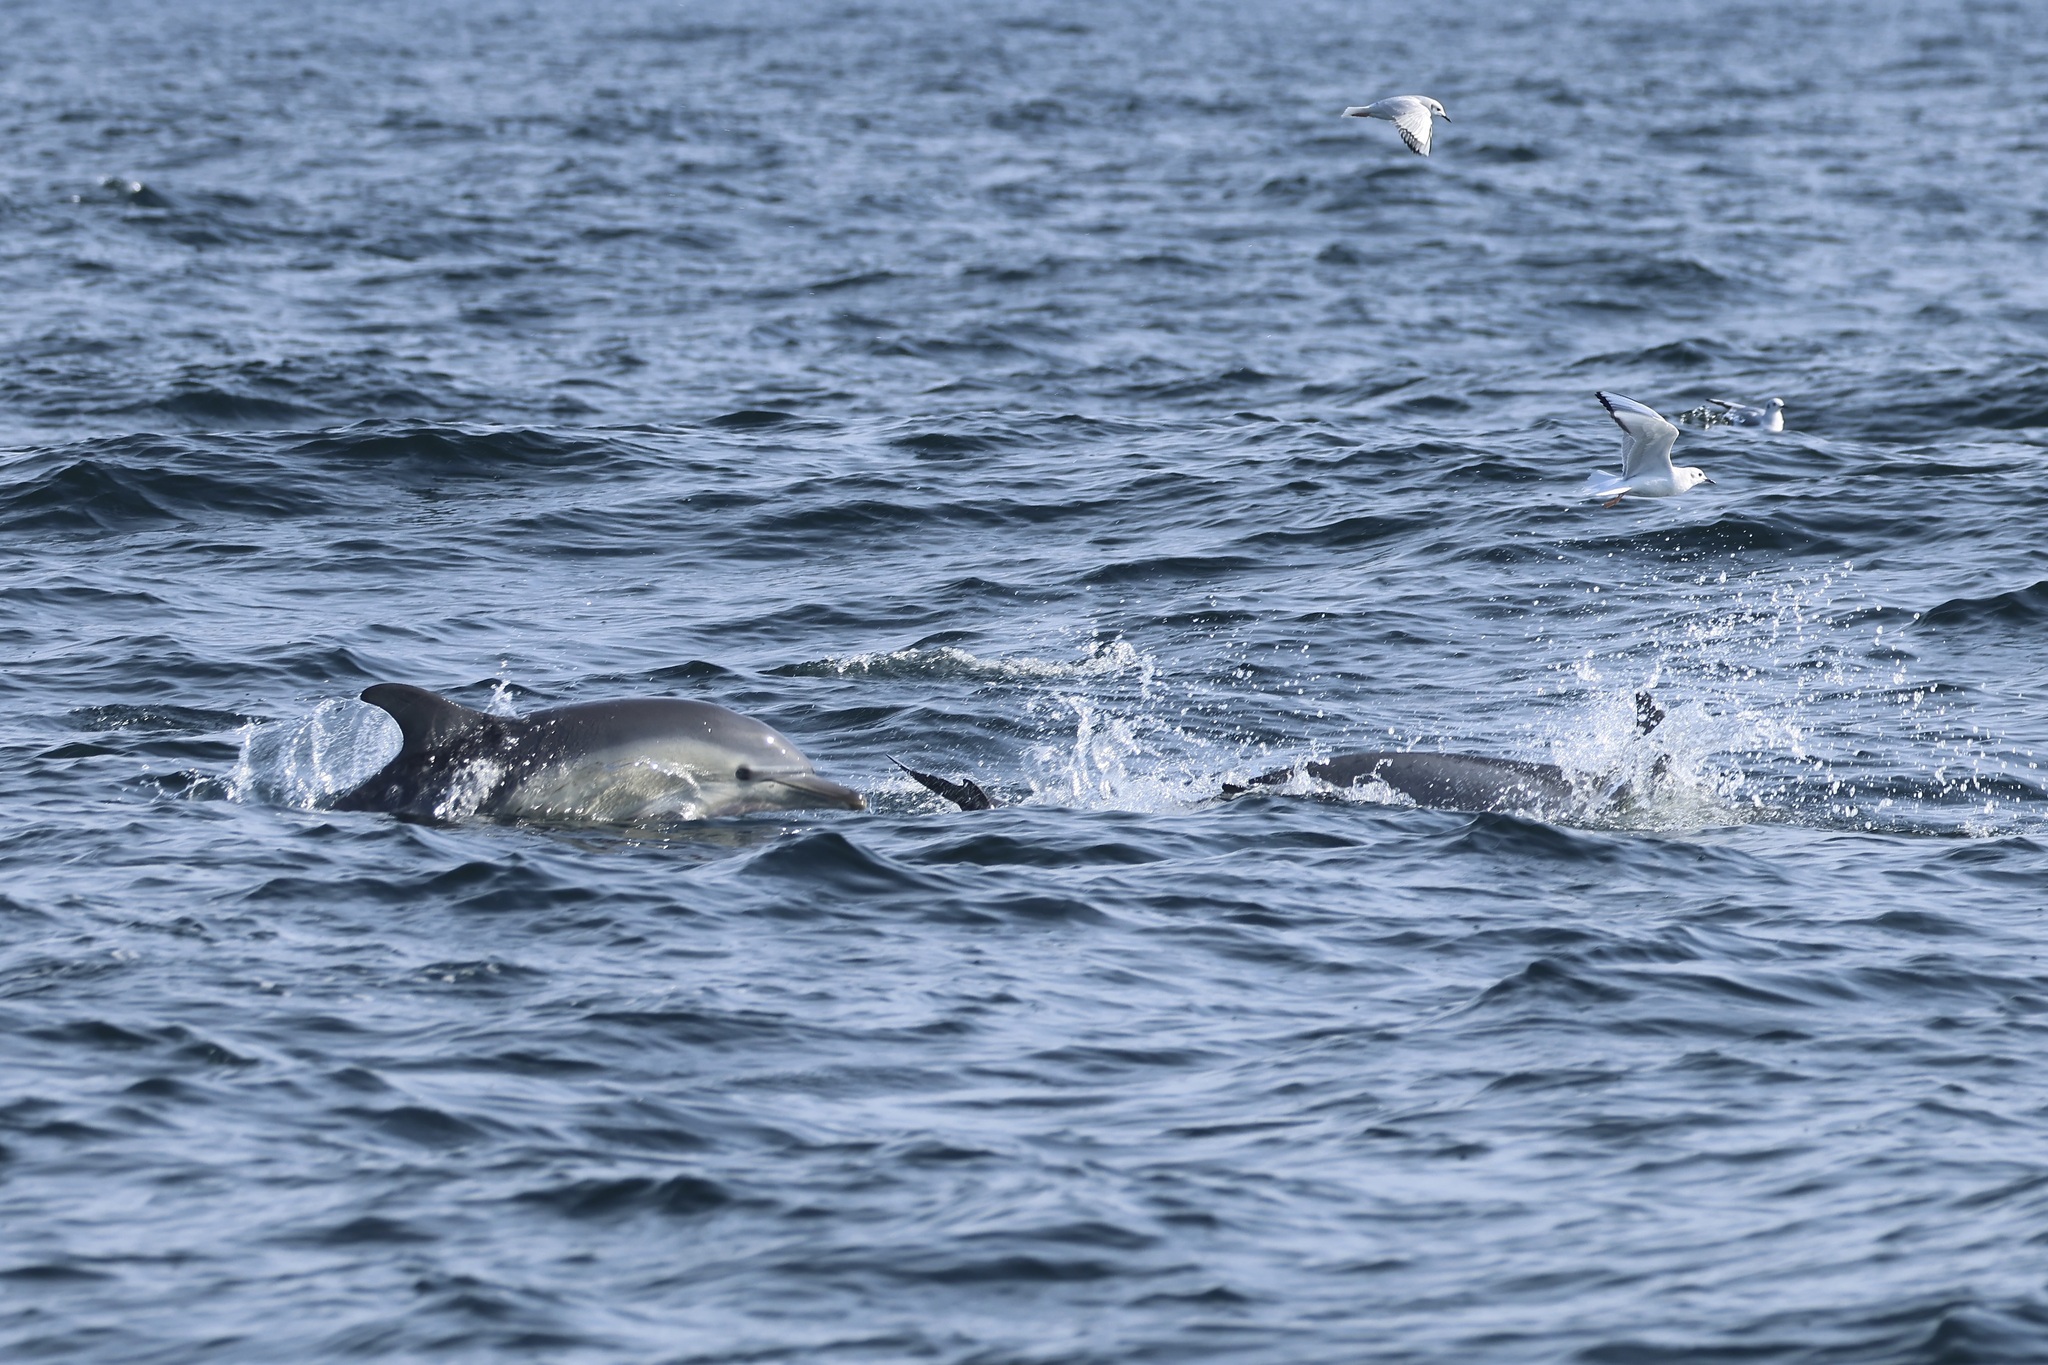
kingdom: Animalia
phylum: Chordata
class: Mammalia
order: Cetacea
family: Delphinidae
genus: Delphinus
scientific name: Delphinus delphis
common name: Common dolphin
